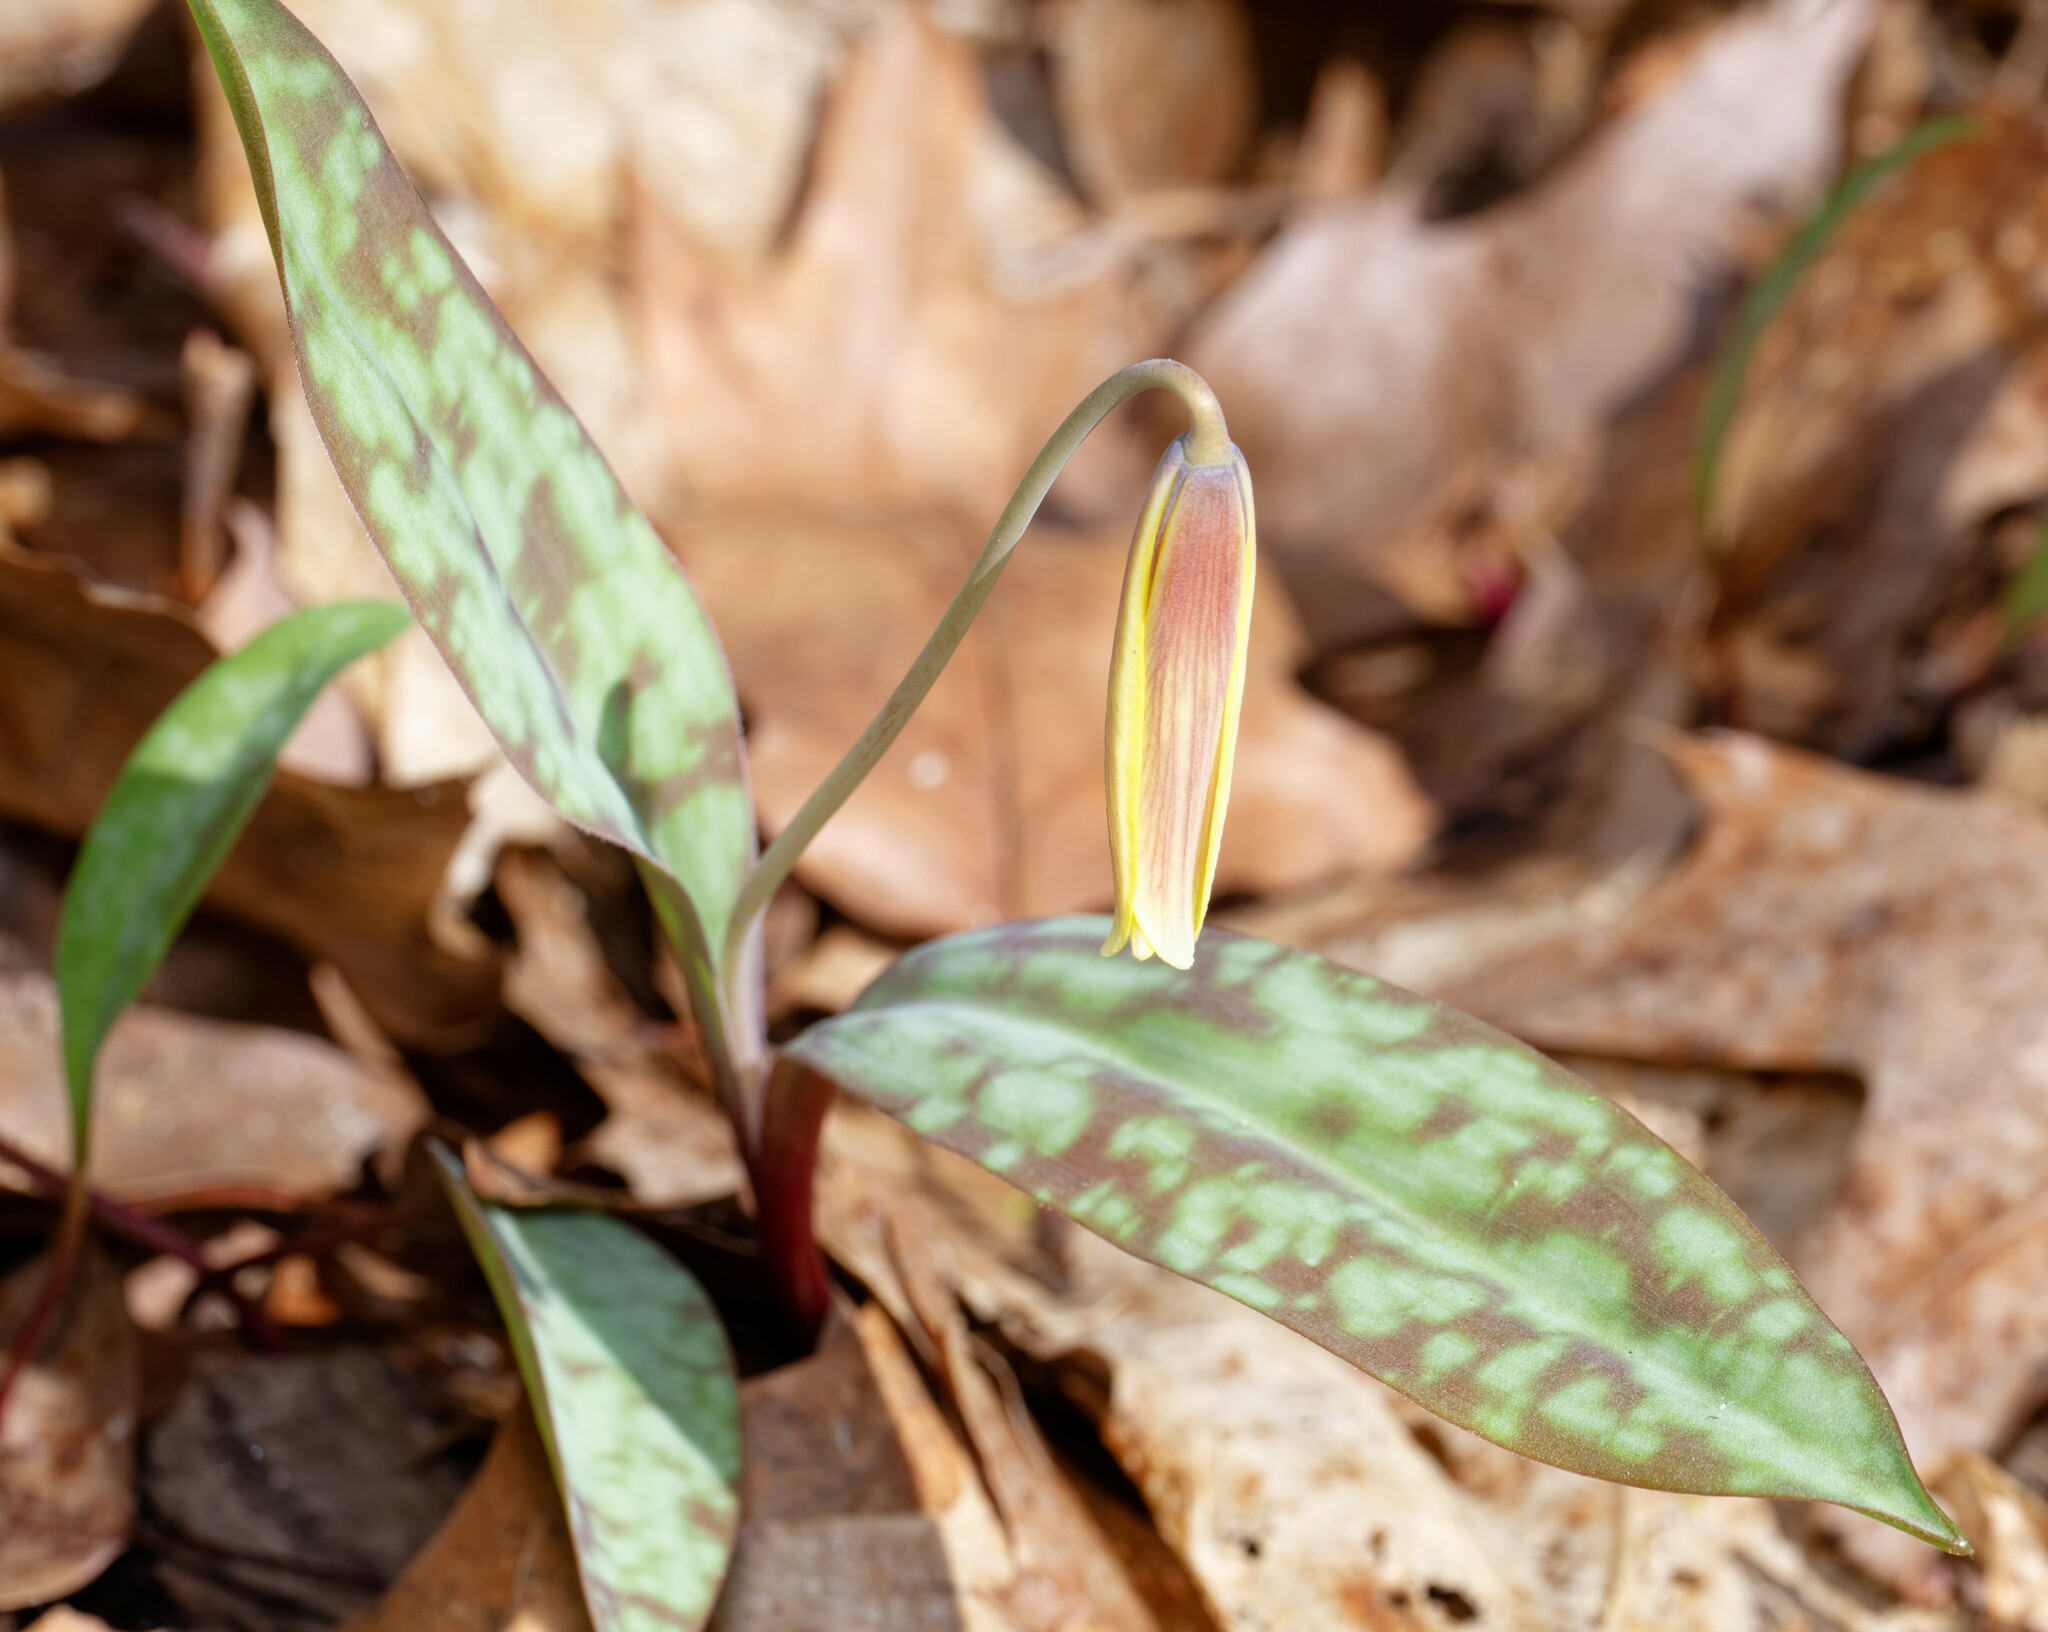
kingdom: Plantae
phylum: Tracheophyta
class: Liliopsida
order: Liliales
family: Liliaceae
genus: Erythronium
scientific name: Erythronium americanum
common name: Yellow adder's-tongue
